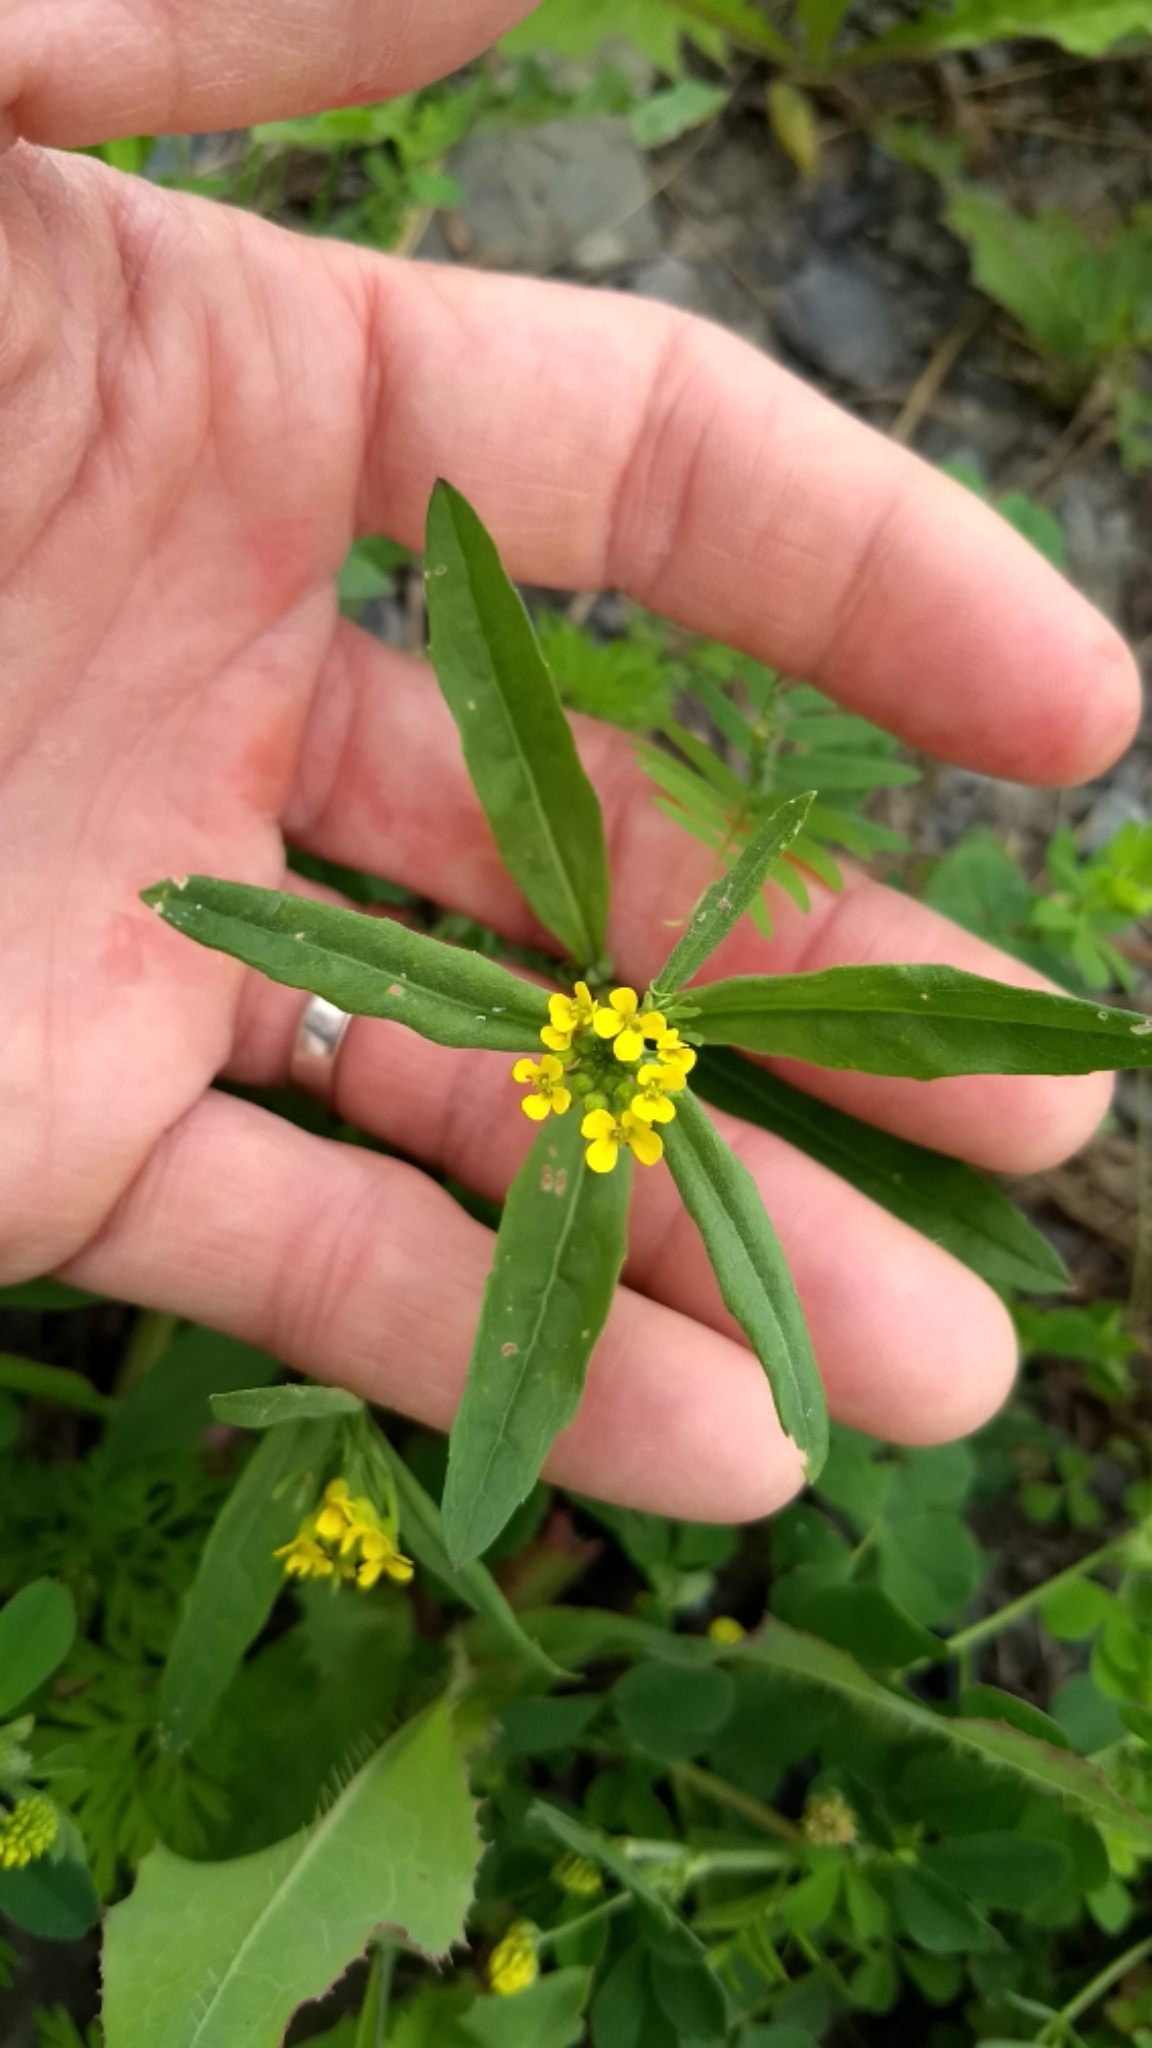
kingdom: Plantae
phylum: Tracheophyta
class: Magnoliopsida
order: Brassicales
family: Brassicaceae
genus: Erysimum
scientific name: Erysimum cheiranthoides
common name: Treacle mustard
